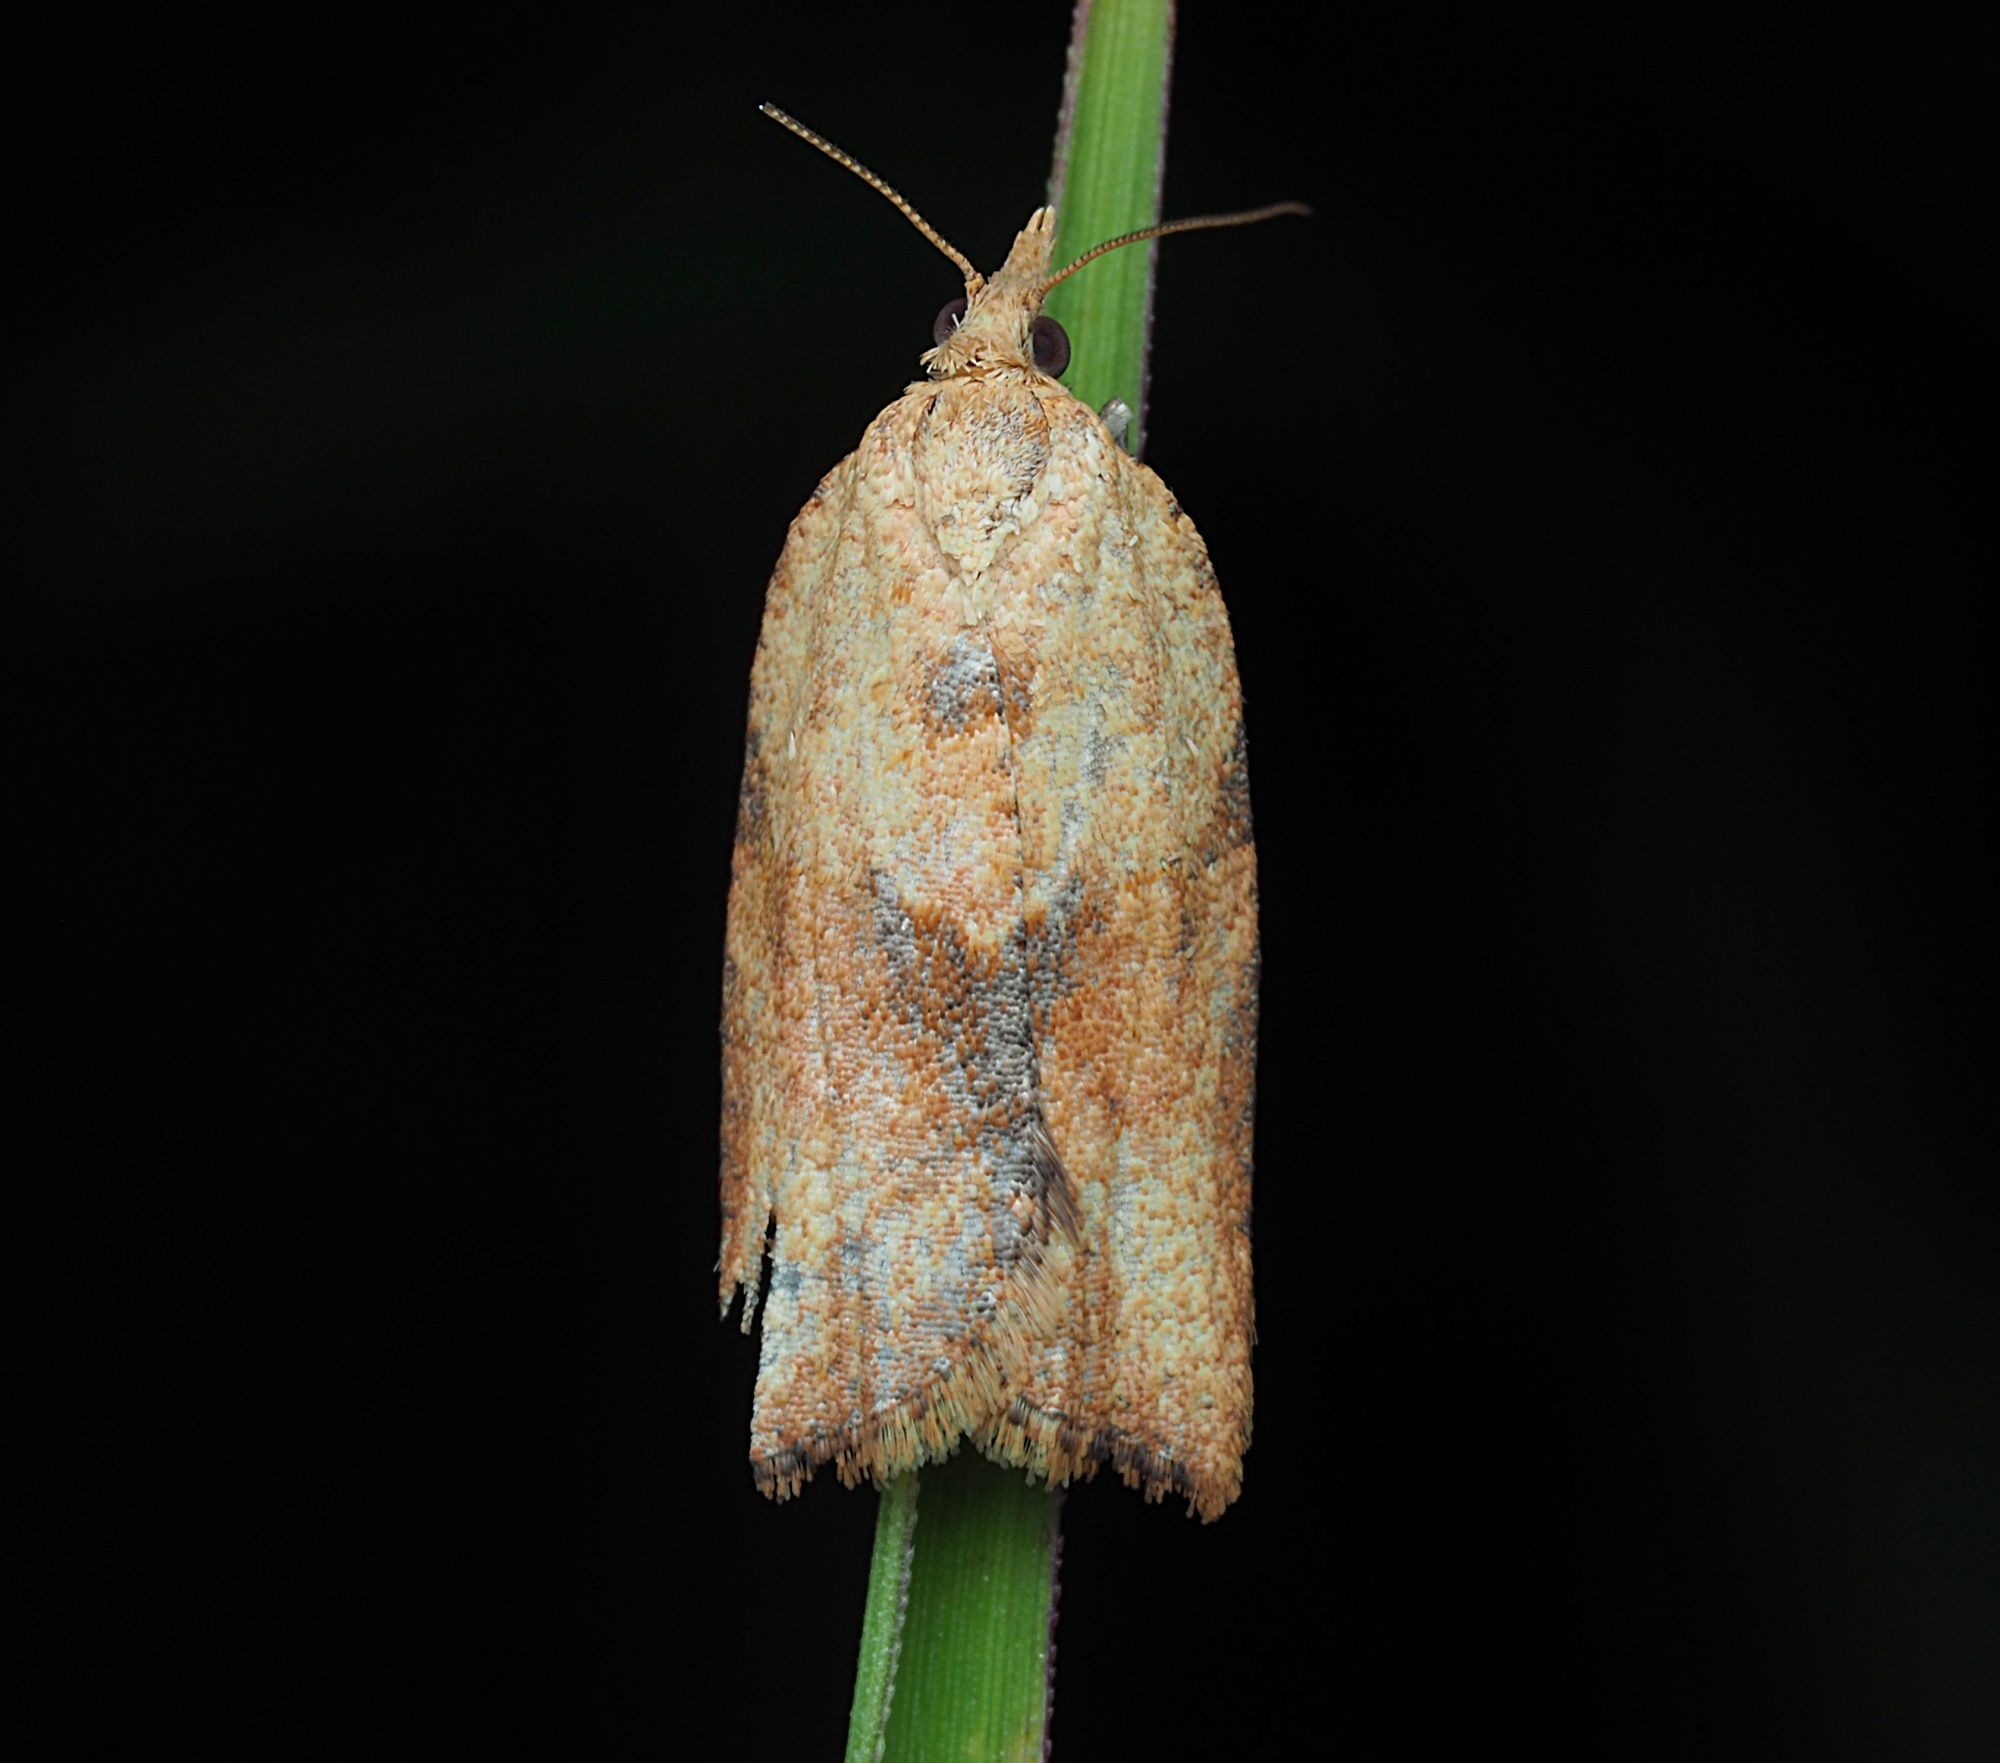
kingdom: Animalia
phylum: Arthropoda
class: Insecta
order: Lepidoptera
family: Tortricidae
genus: Epiphyas
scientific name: Epiphyas postvittana
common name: Light brown apple moth
